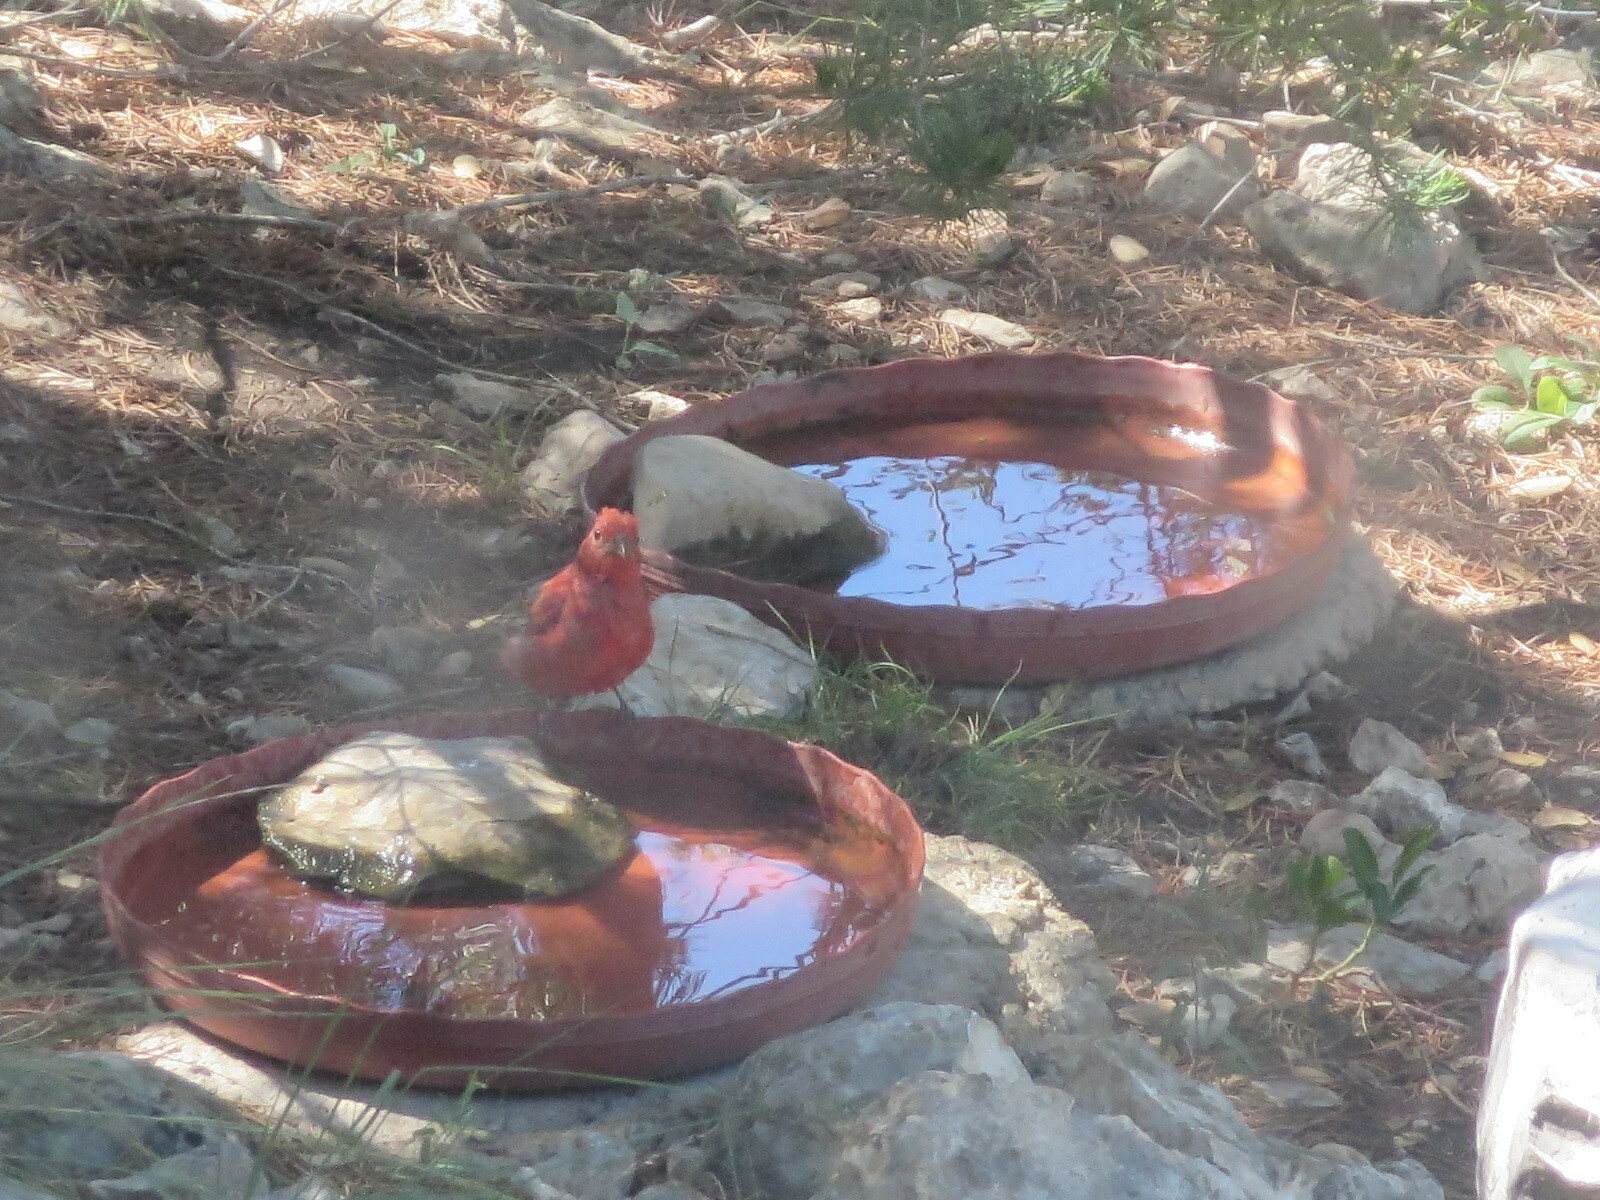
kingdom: Animalia
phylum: Chordata
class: Aves
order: Passeriformes
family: Cardinalidae
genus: Piranga
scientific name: Piranga rubra
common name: Summer tanager
